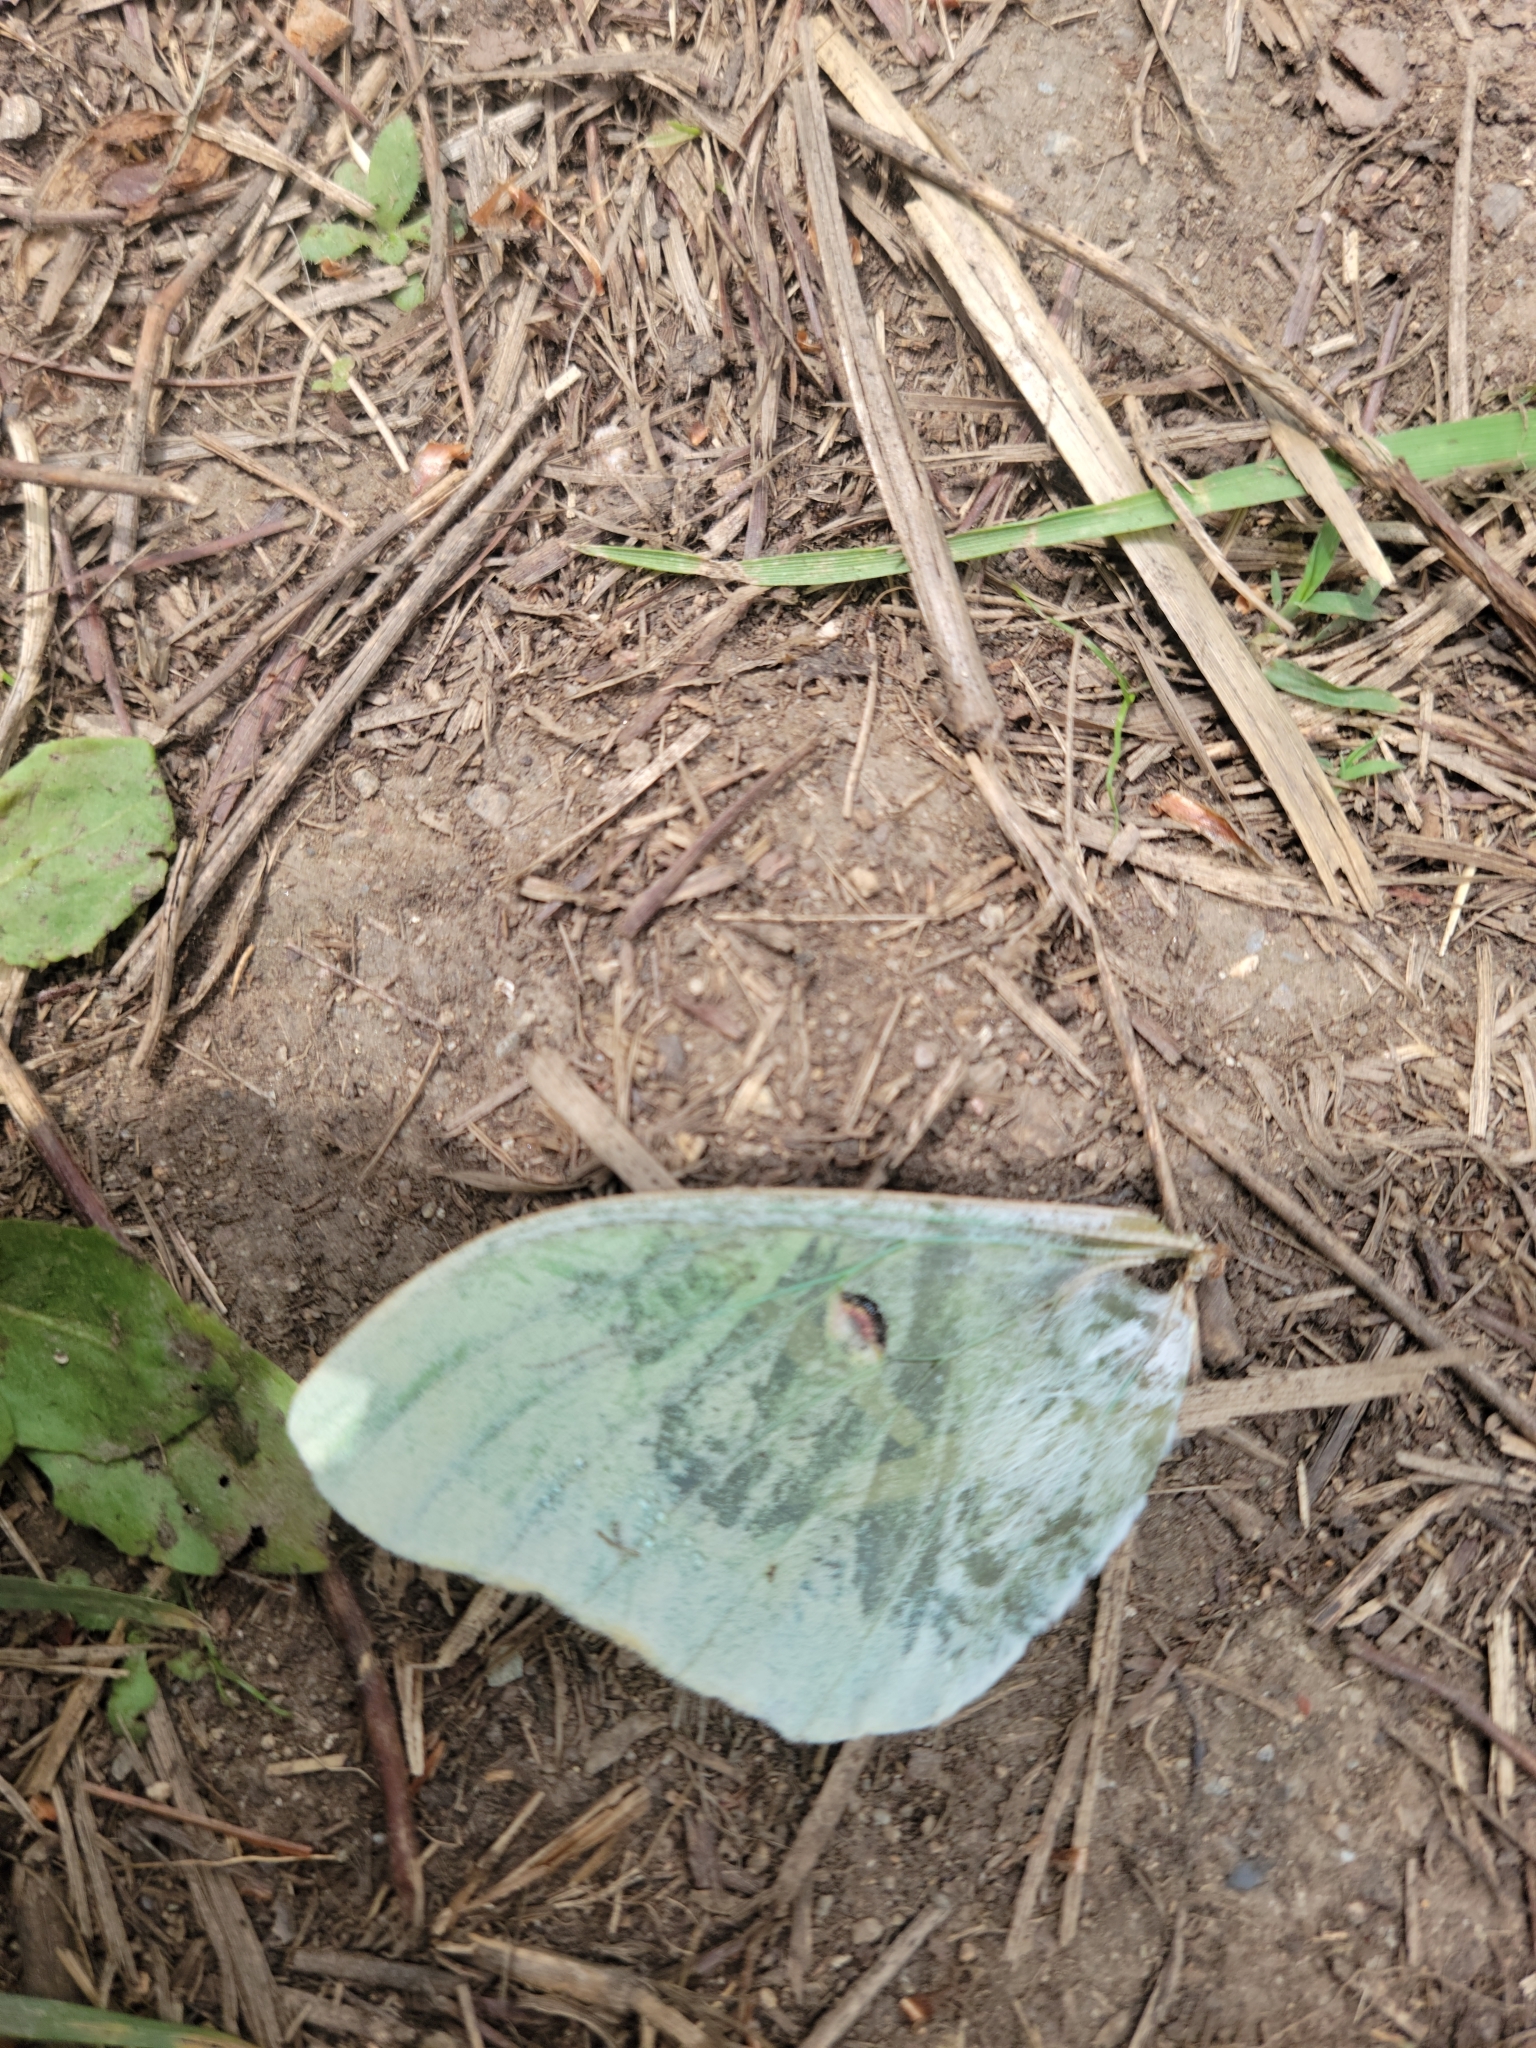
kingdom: Animalia
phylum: Arthropoda
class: Insecta
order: Lepidoptera
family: Saturniidae
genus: Actias
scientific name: Actias luna
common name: Luna moth
